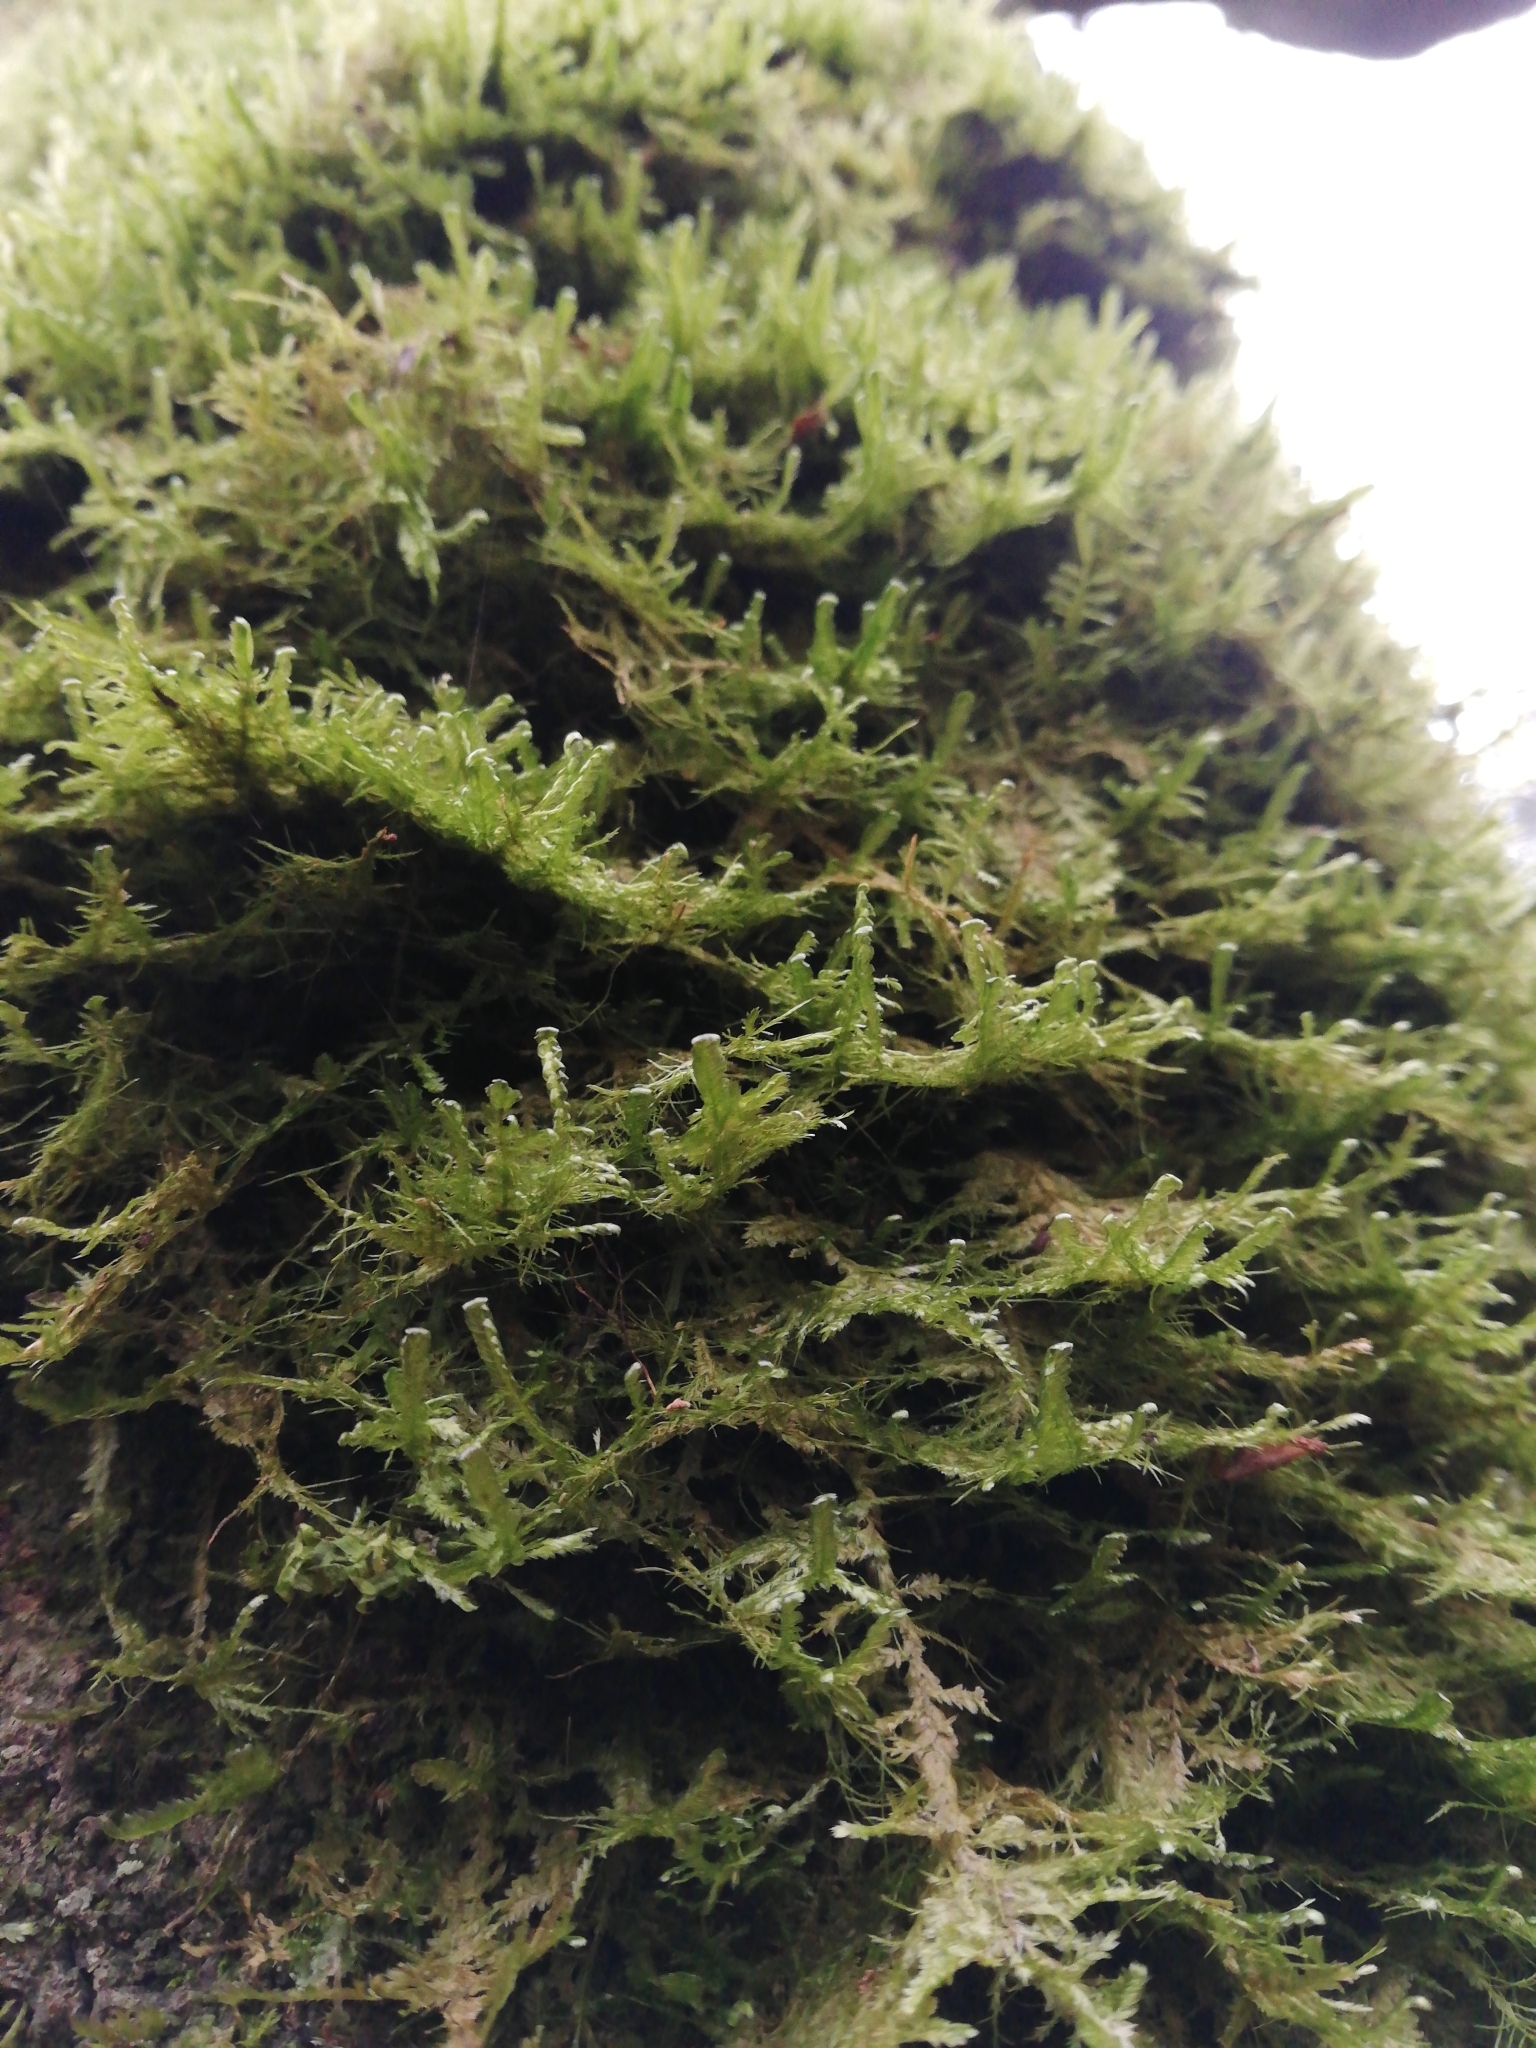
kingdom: Plantae
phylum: Bryophyta
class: Bryopsida
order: Hypnales
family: Neckeraceae
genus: Alleniella
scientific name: Alleniella complanata
